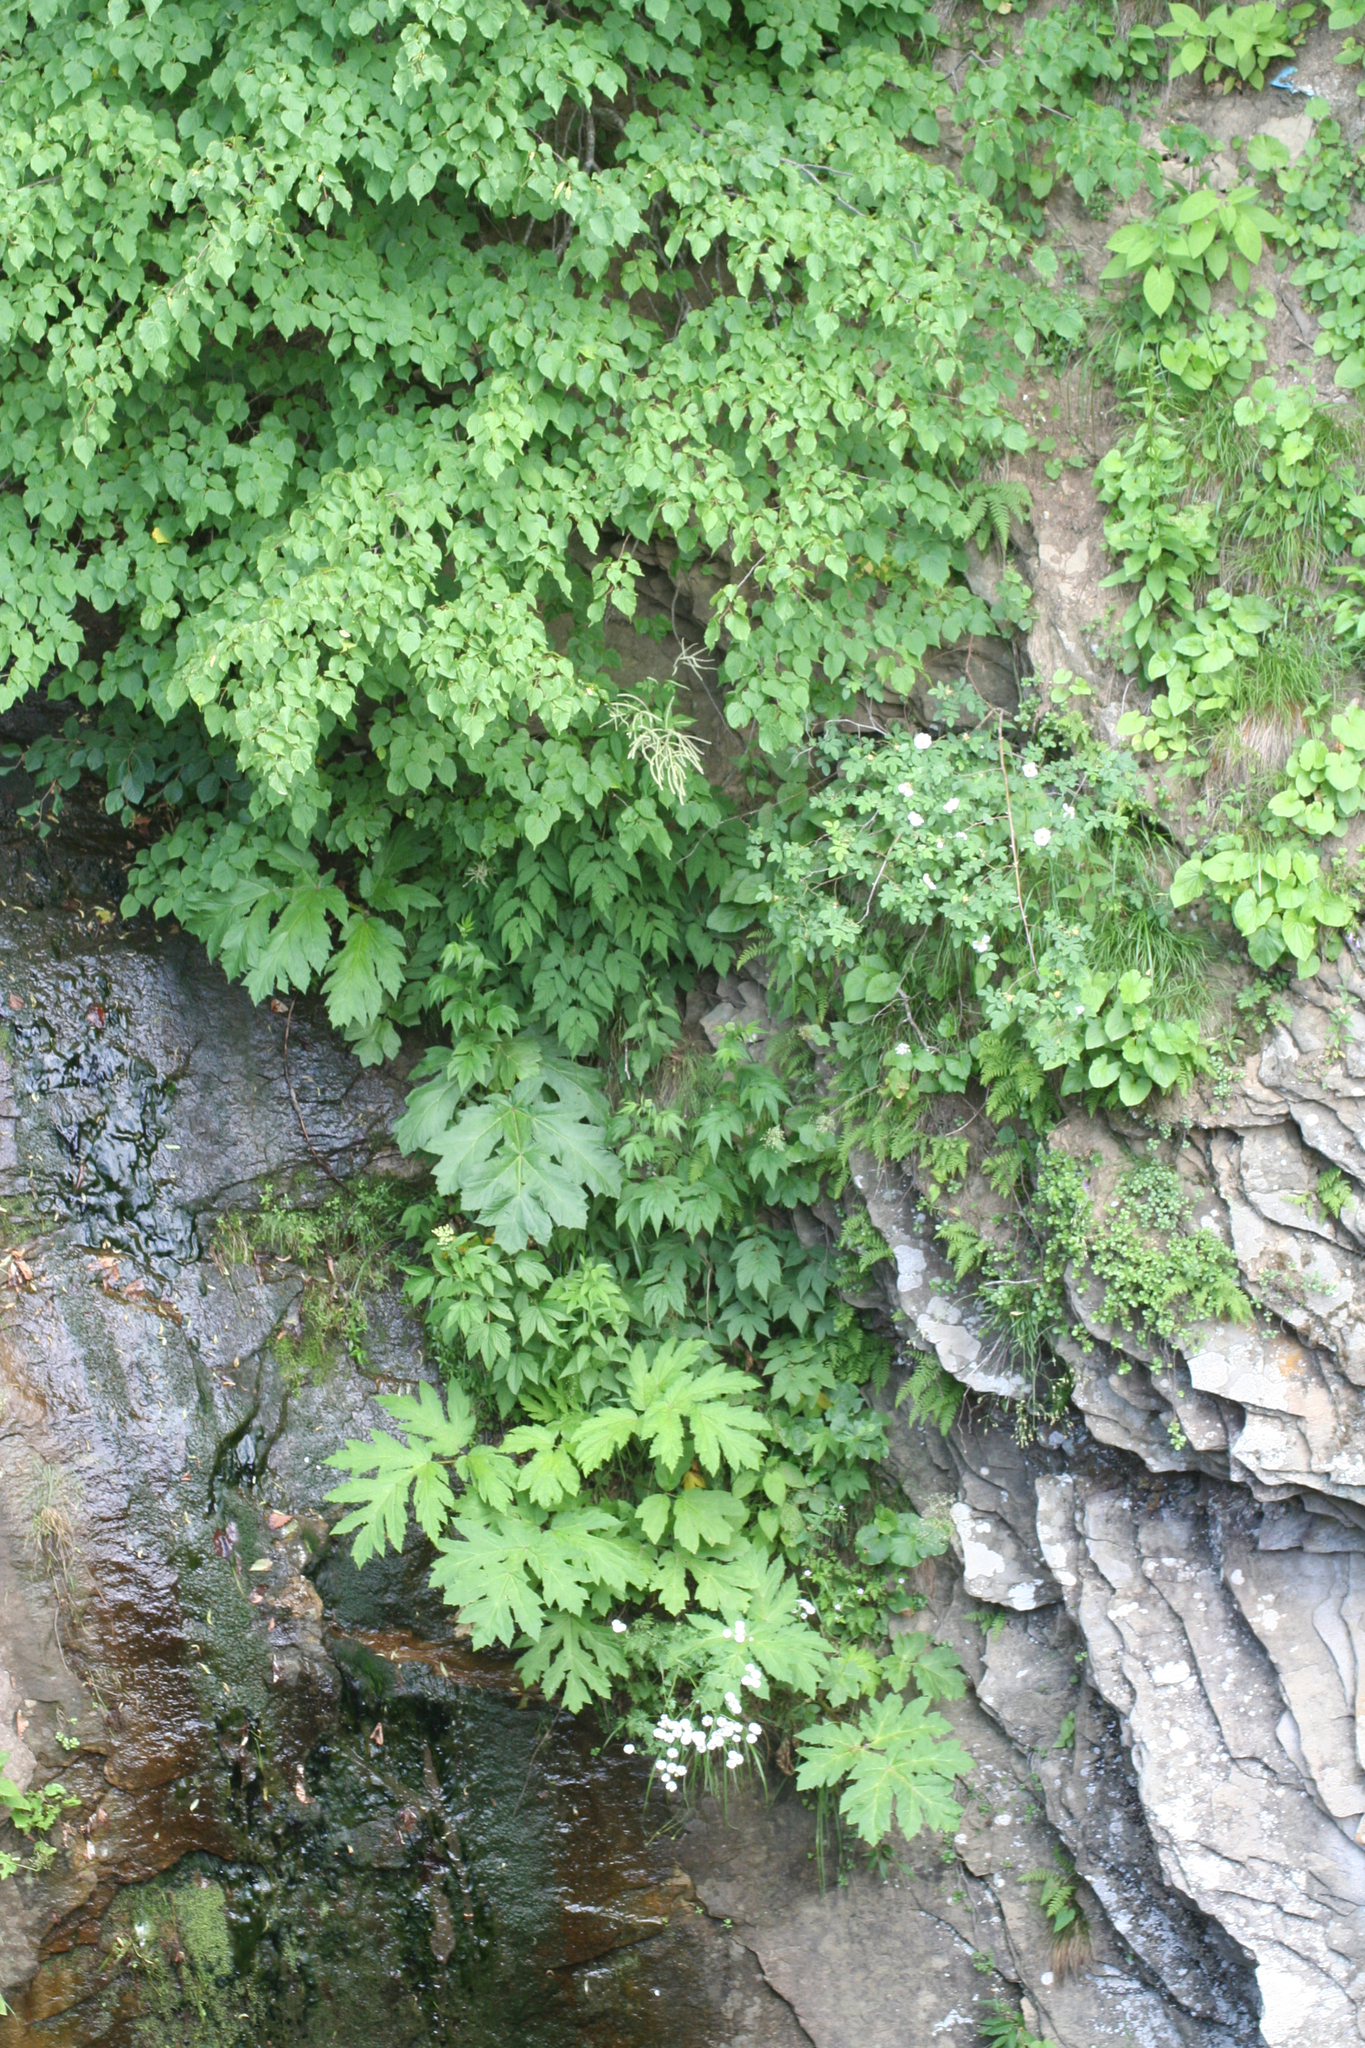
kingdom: Plantae
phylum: Tracheophyta
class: Magnoliopsida
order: Malvales
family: Malvaceae
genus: Tilia
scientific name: Tilia cordata
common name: Small-leaved lime
